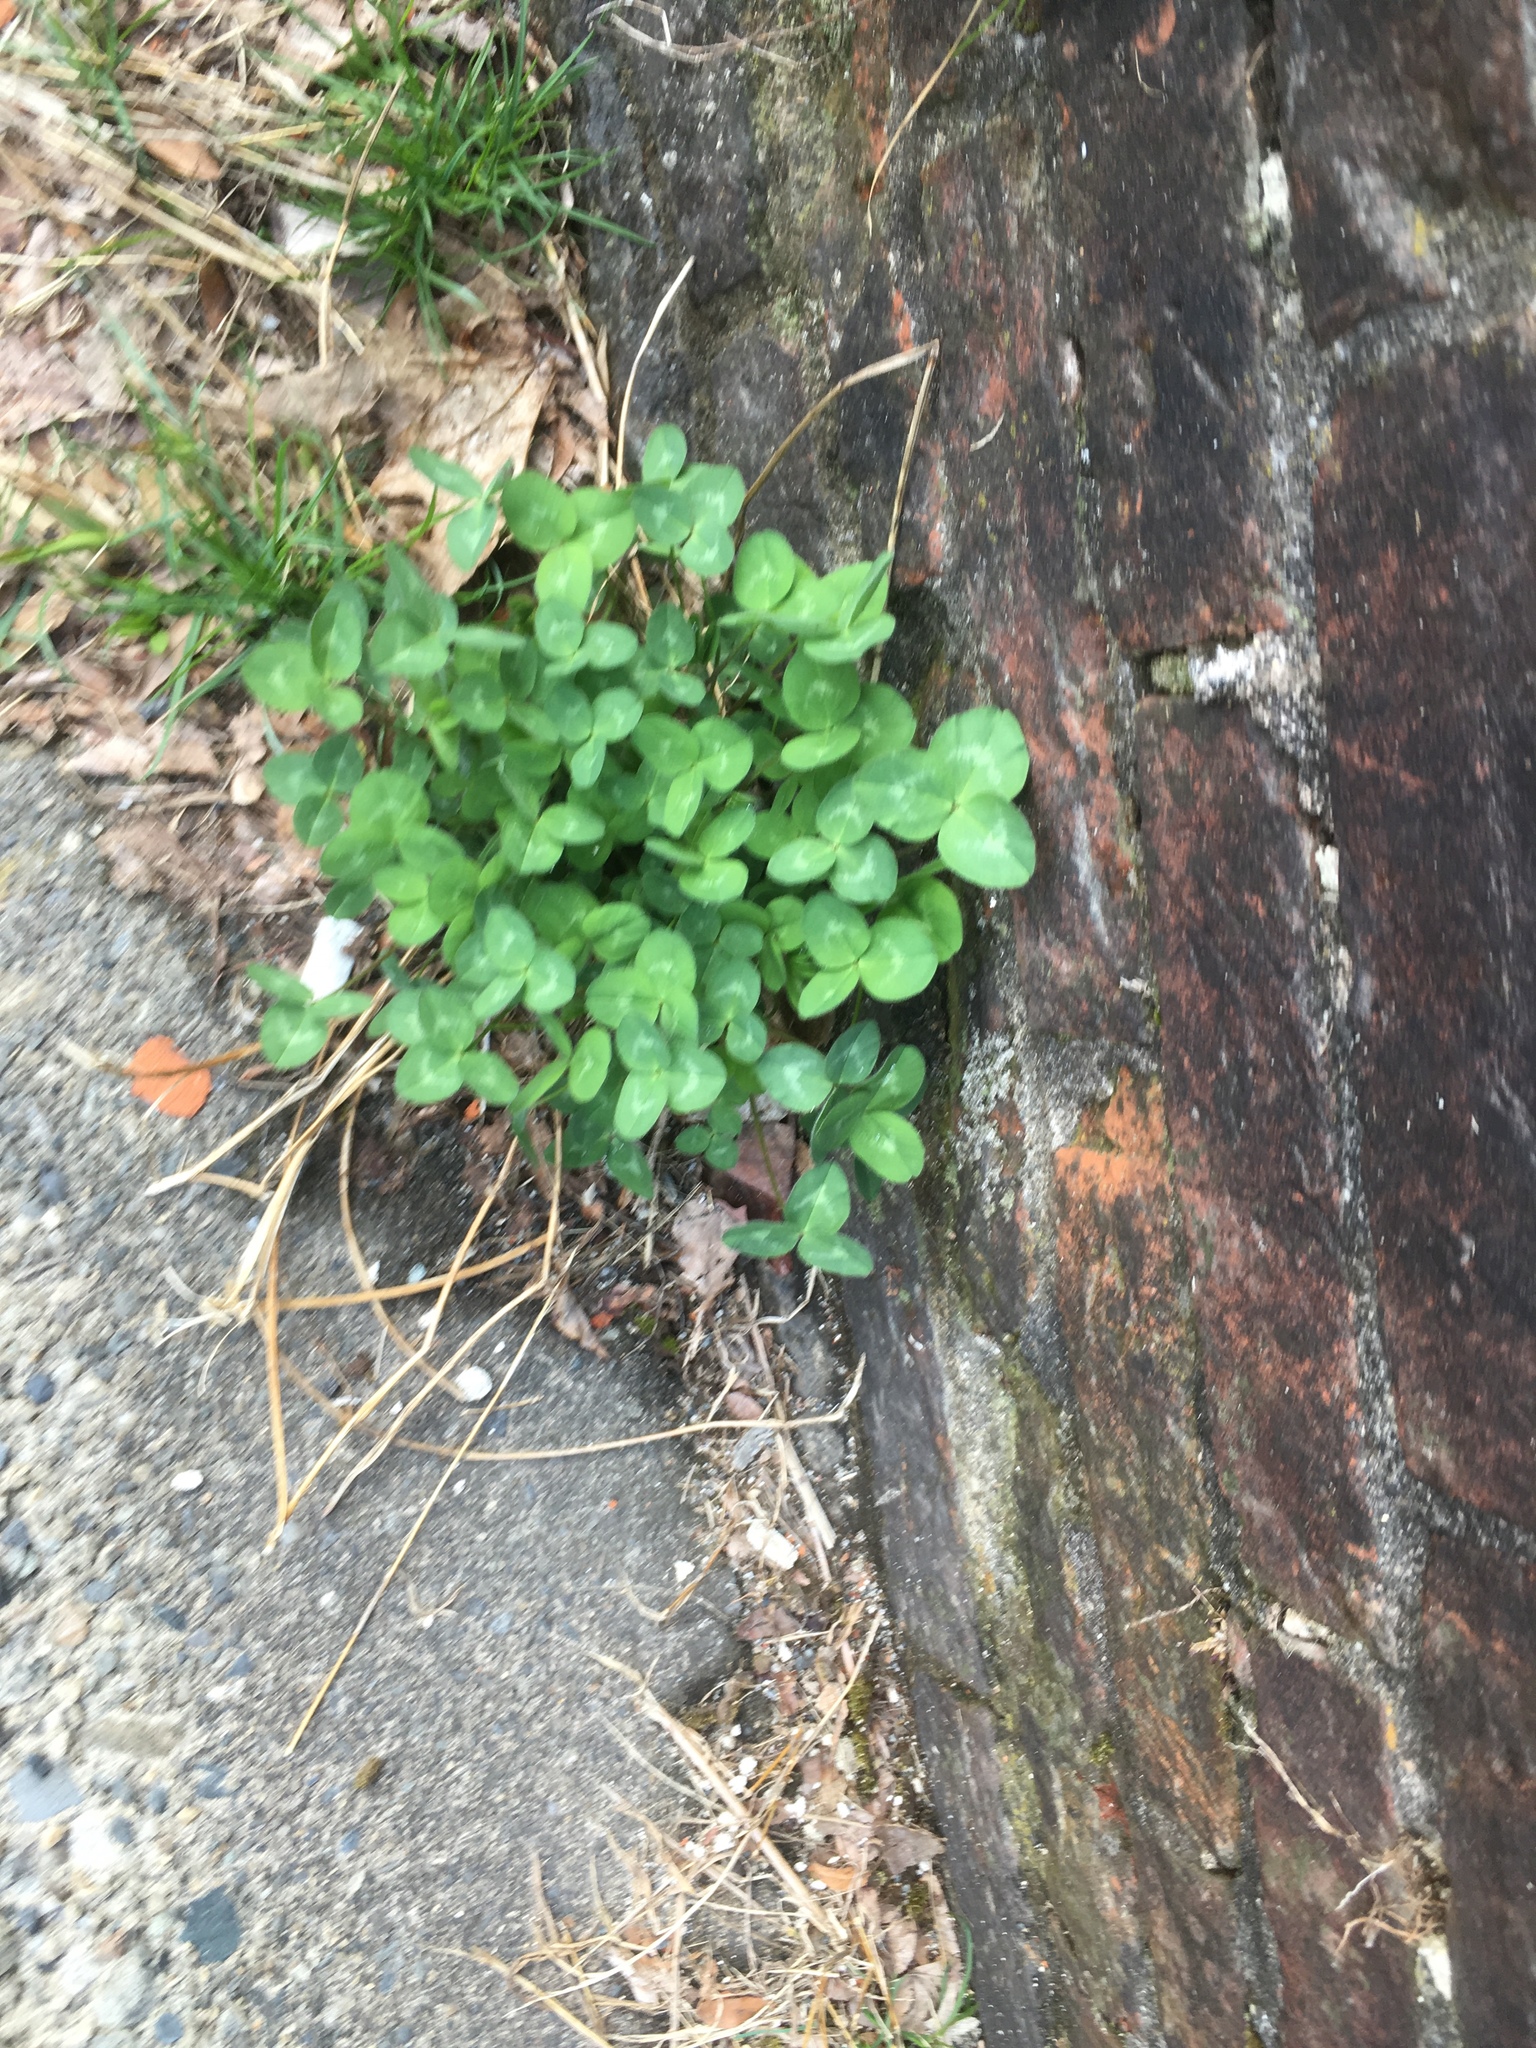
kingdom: Plantae
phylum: Tracheophyta
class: Magnoliopsida
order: Fabales
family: Fabaceae
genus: Trifolium
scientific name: Trifolium pratense
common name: Red clover
